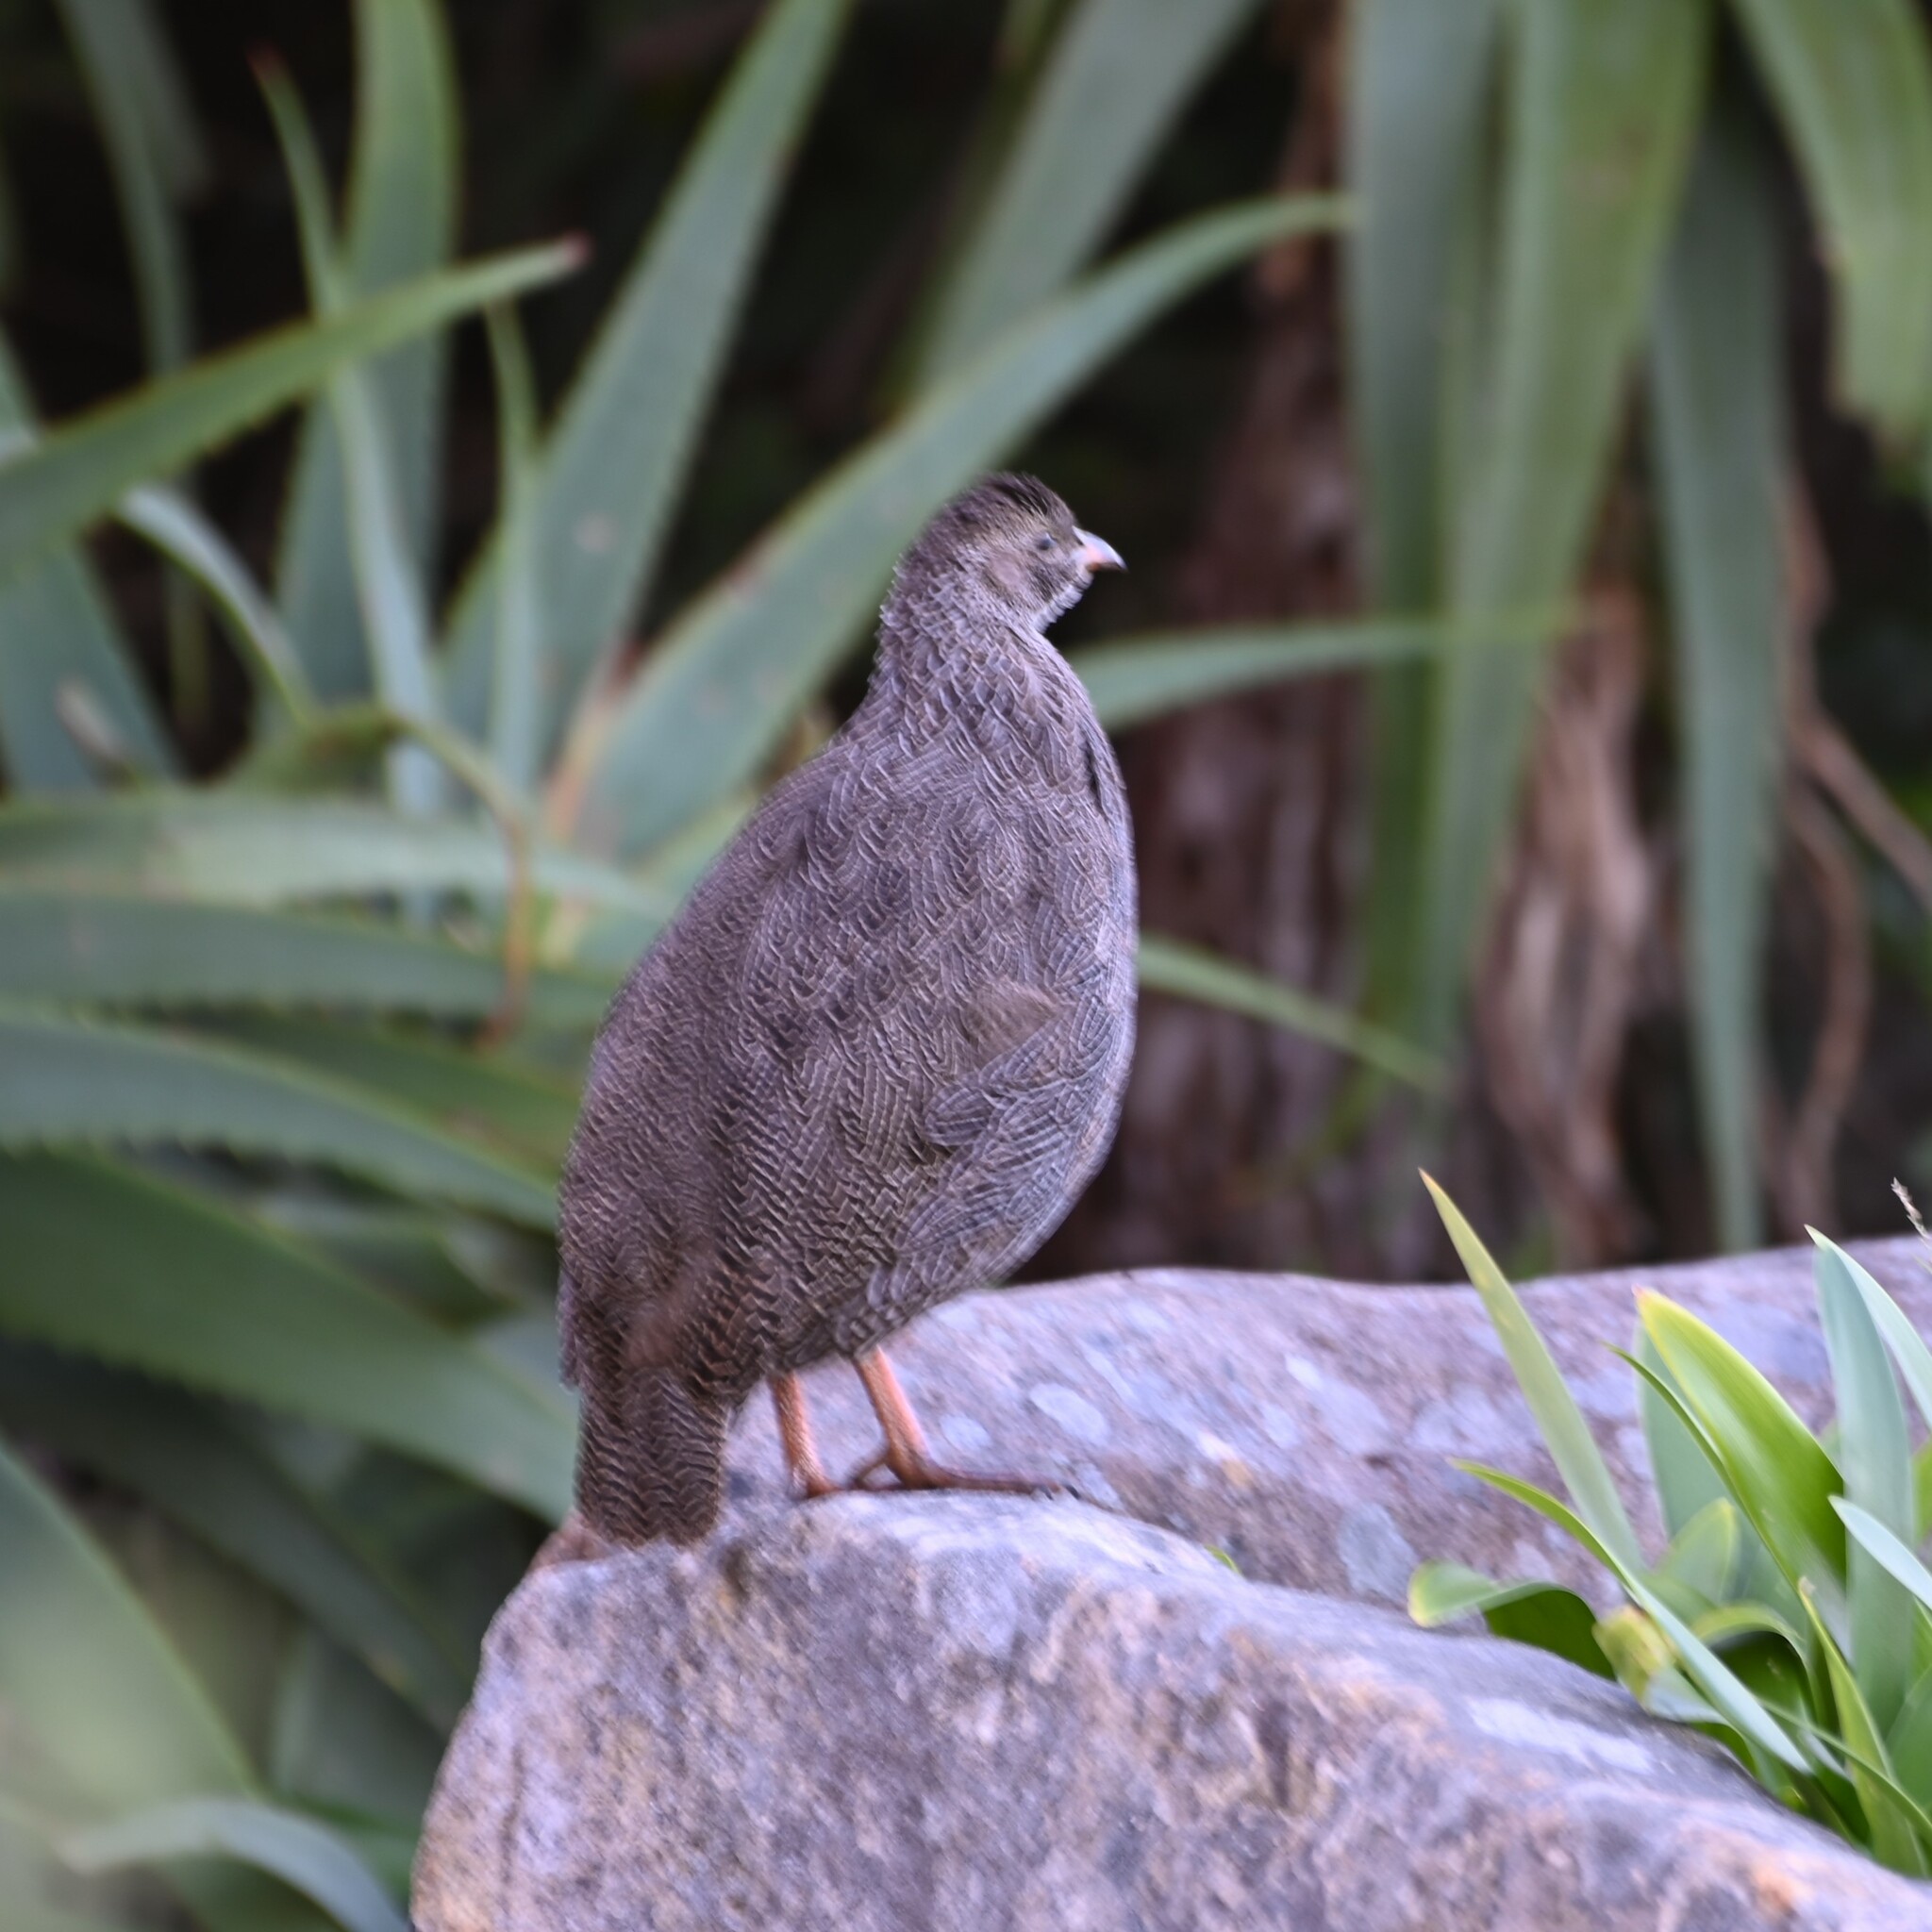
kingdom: Animalia
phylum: Chordata
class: Aves
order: Galliformes
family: Phasianidae
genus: Pternistis
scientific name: Pternistis capensis
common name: Cape spurfowl
